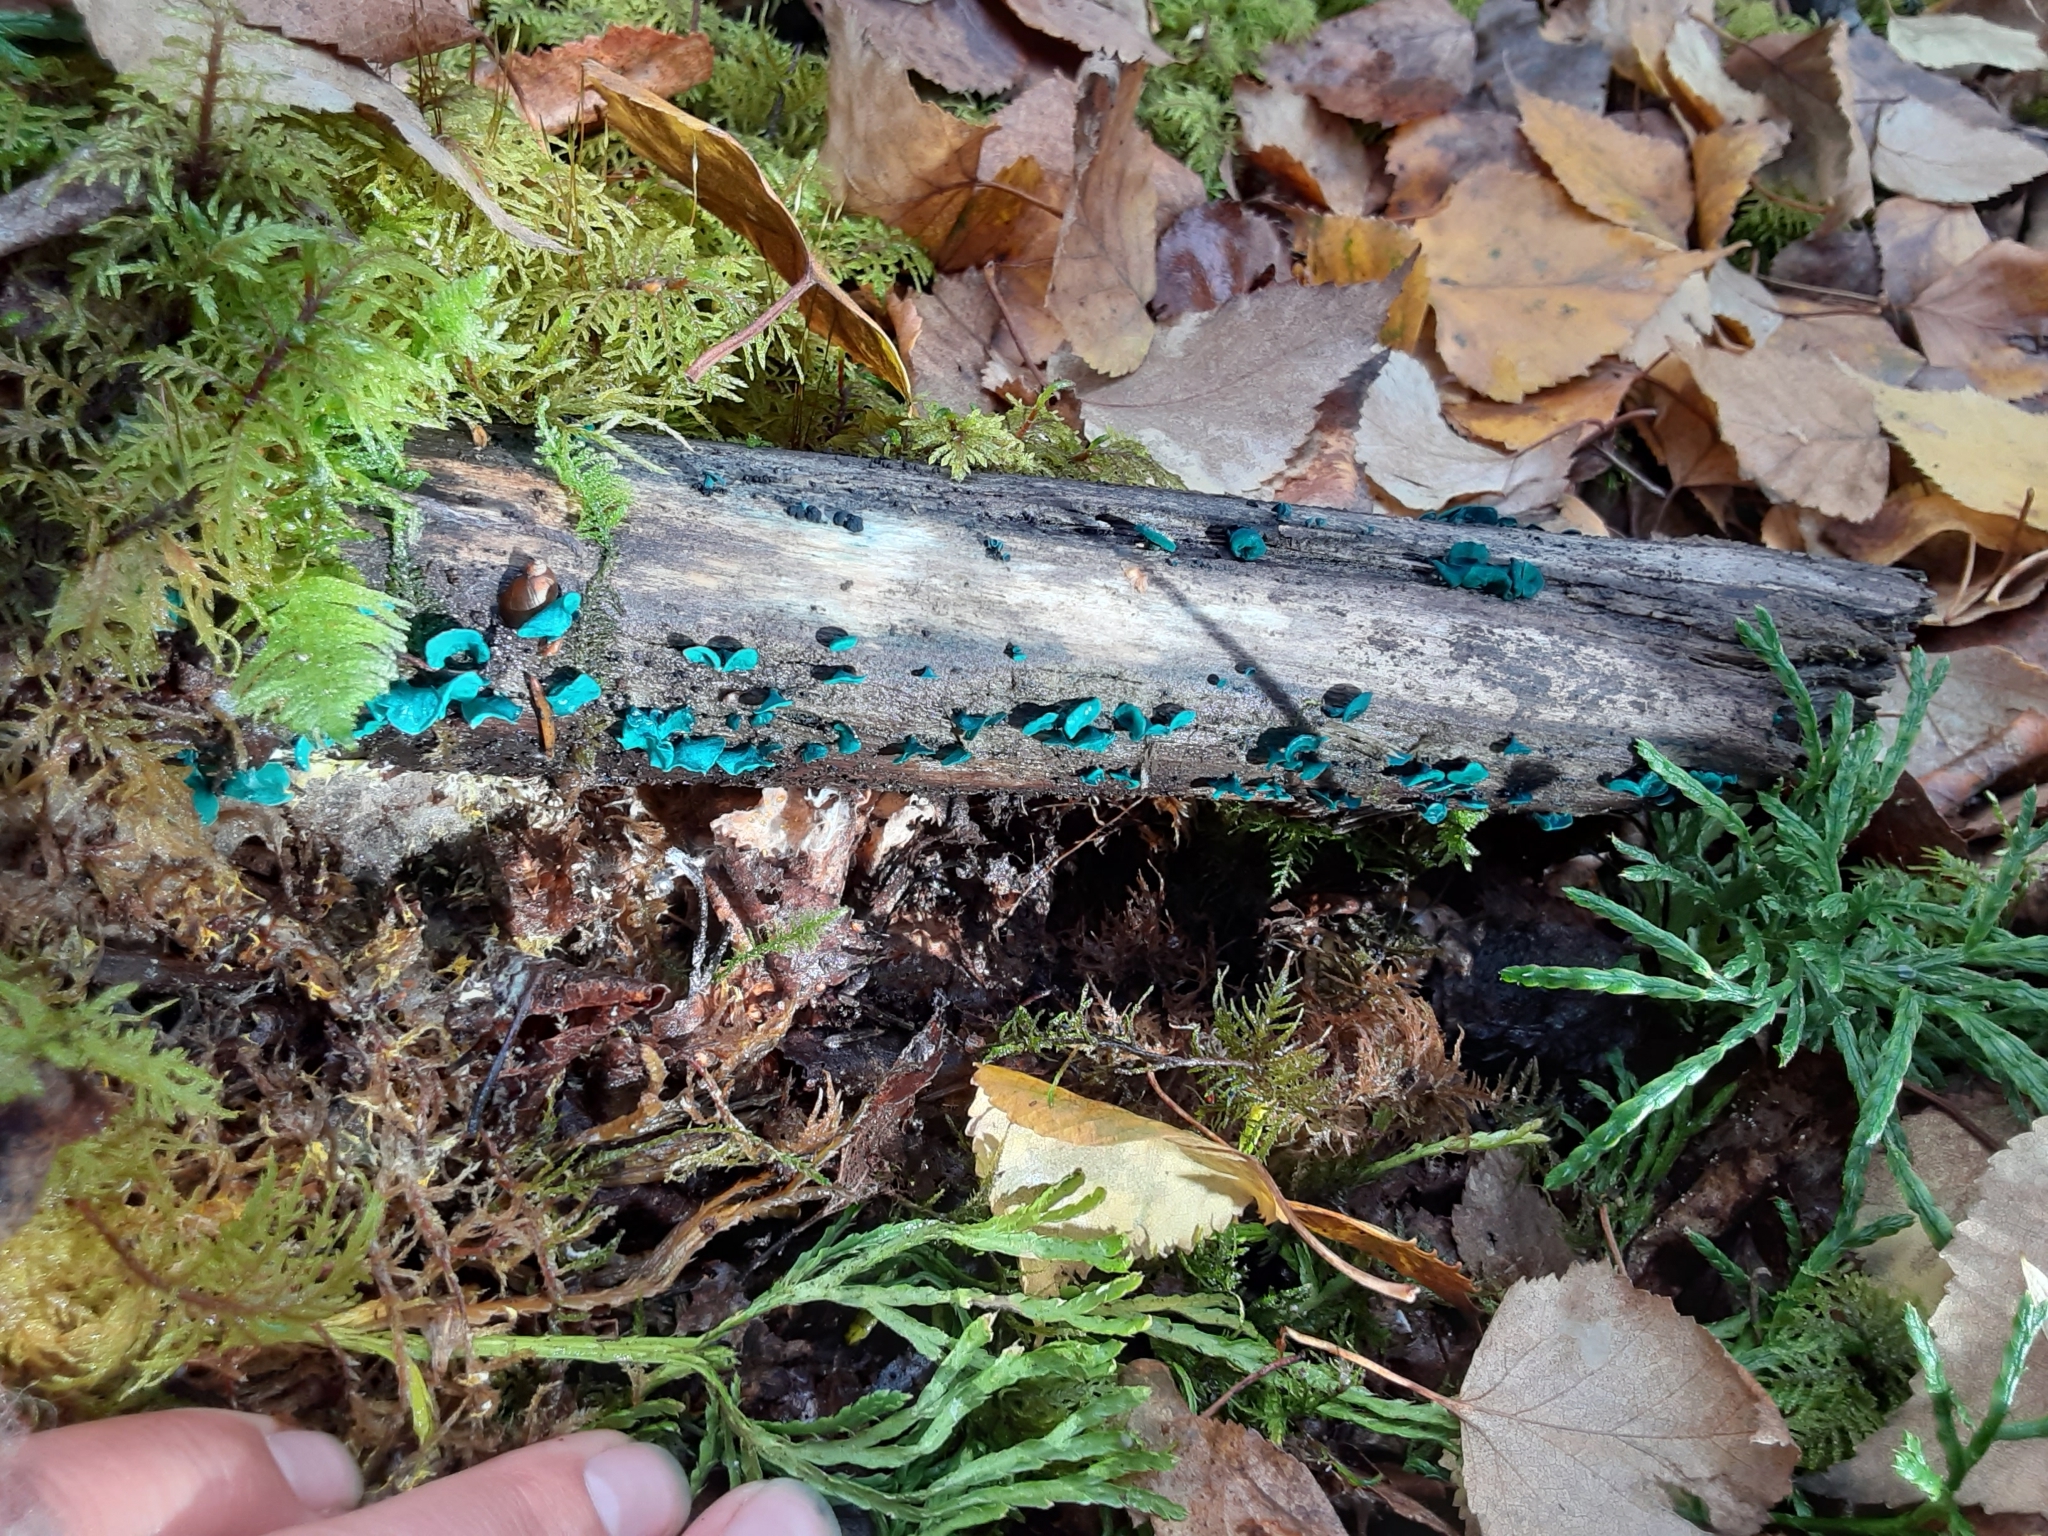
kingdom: Fungi
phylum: Ascomycota
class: Leotiomycetes
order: Helotiales
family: Chlorociboriaceae
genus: Chlorociboria
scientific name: Chlorociboria aeruginascens
